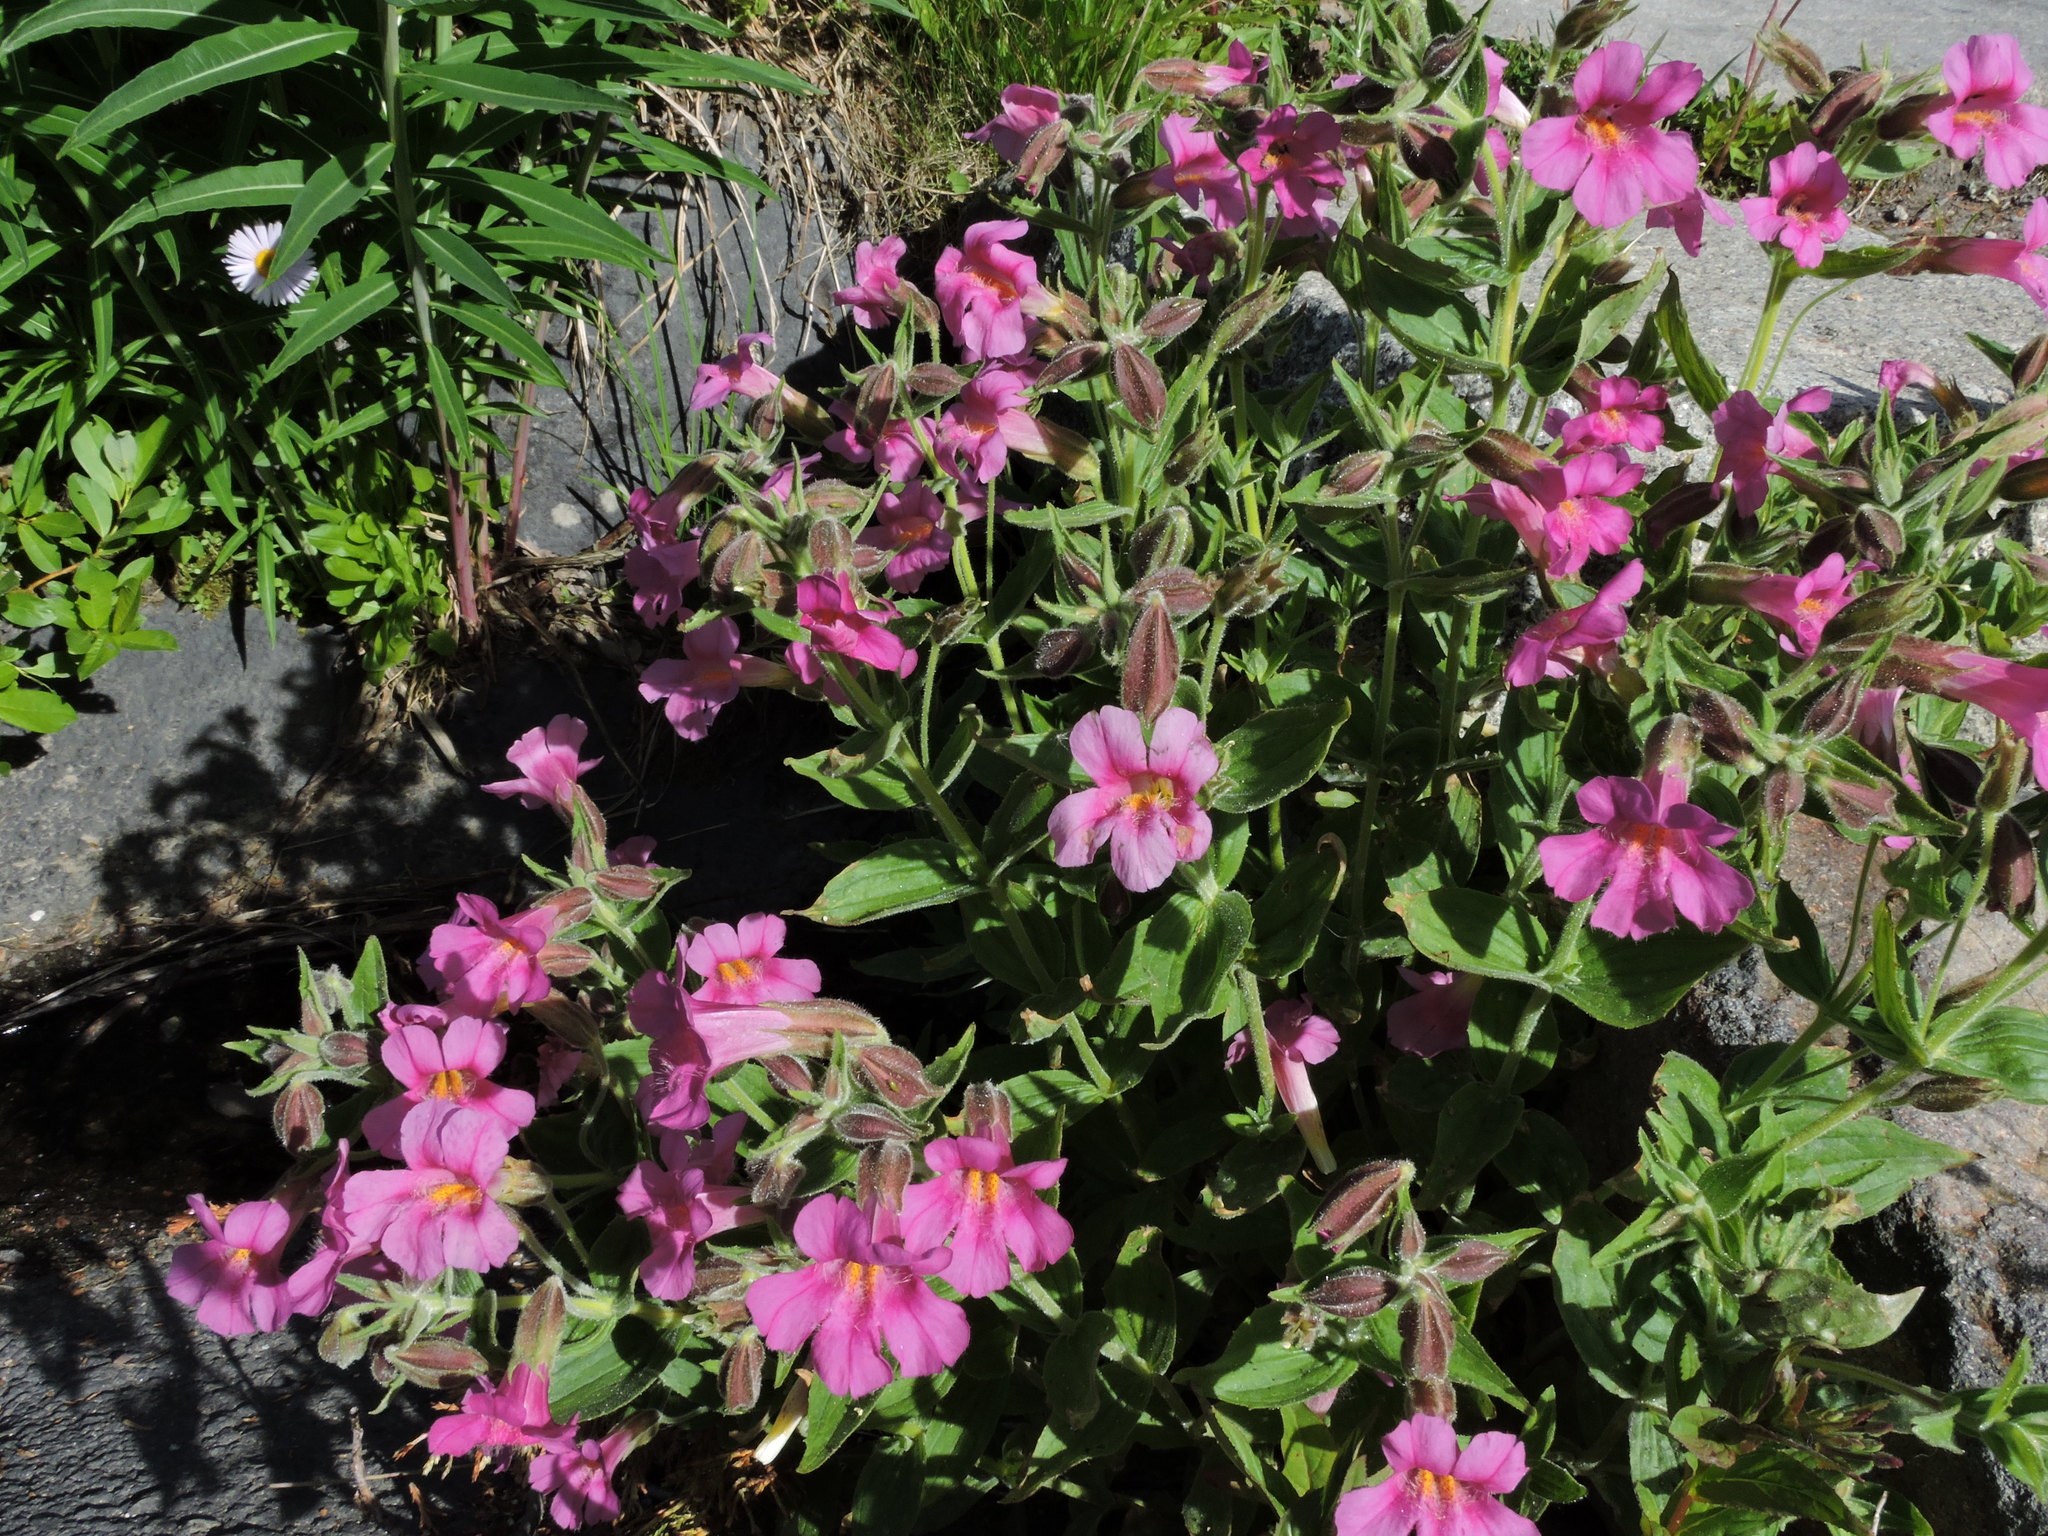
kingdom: Plantae
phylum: Tracheophyta
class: Magnoliopsida
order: Lamiales
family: Phrymaceae
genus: Erythranthe
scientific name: Erythranthe lewisii
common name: Lewis's monkey-flower
